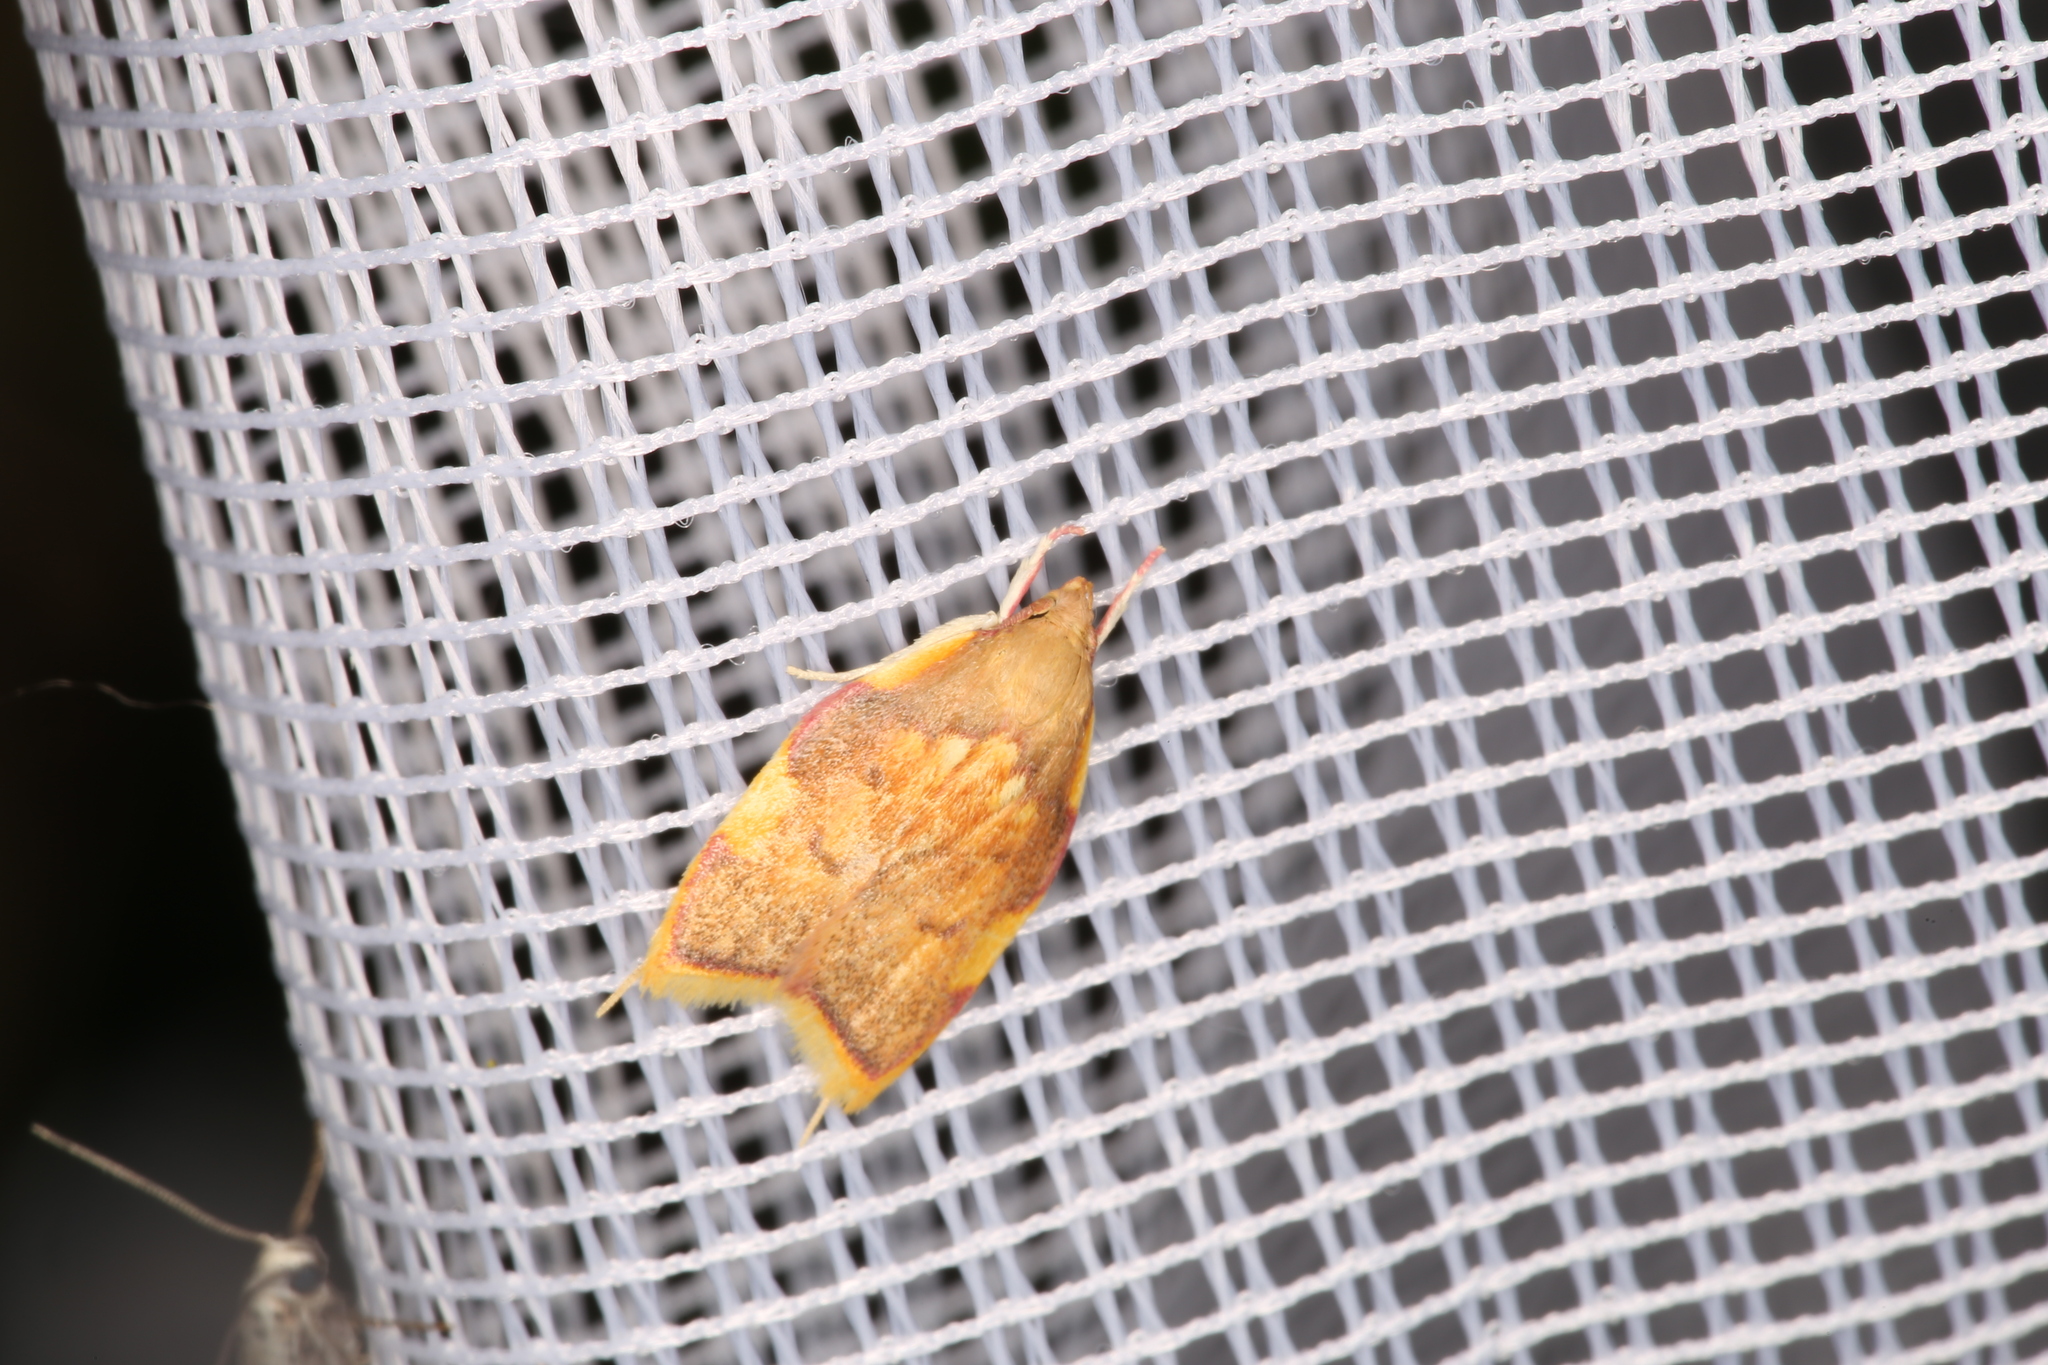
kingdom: Animalia
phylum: Arthropoda
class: Insecta
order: Lepidoptera
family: Peleopodidae
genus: Carcina
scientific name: Carcina quercana
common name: Moth
